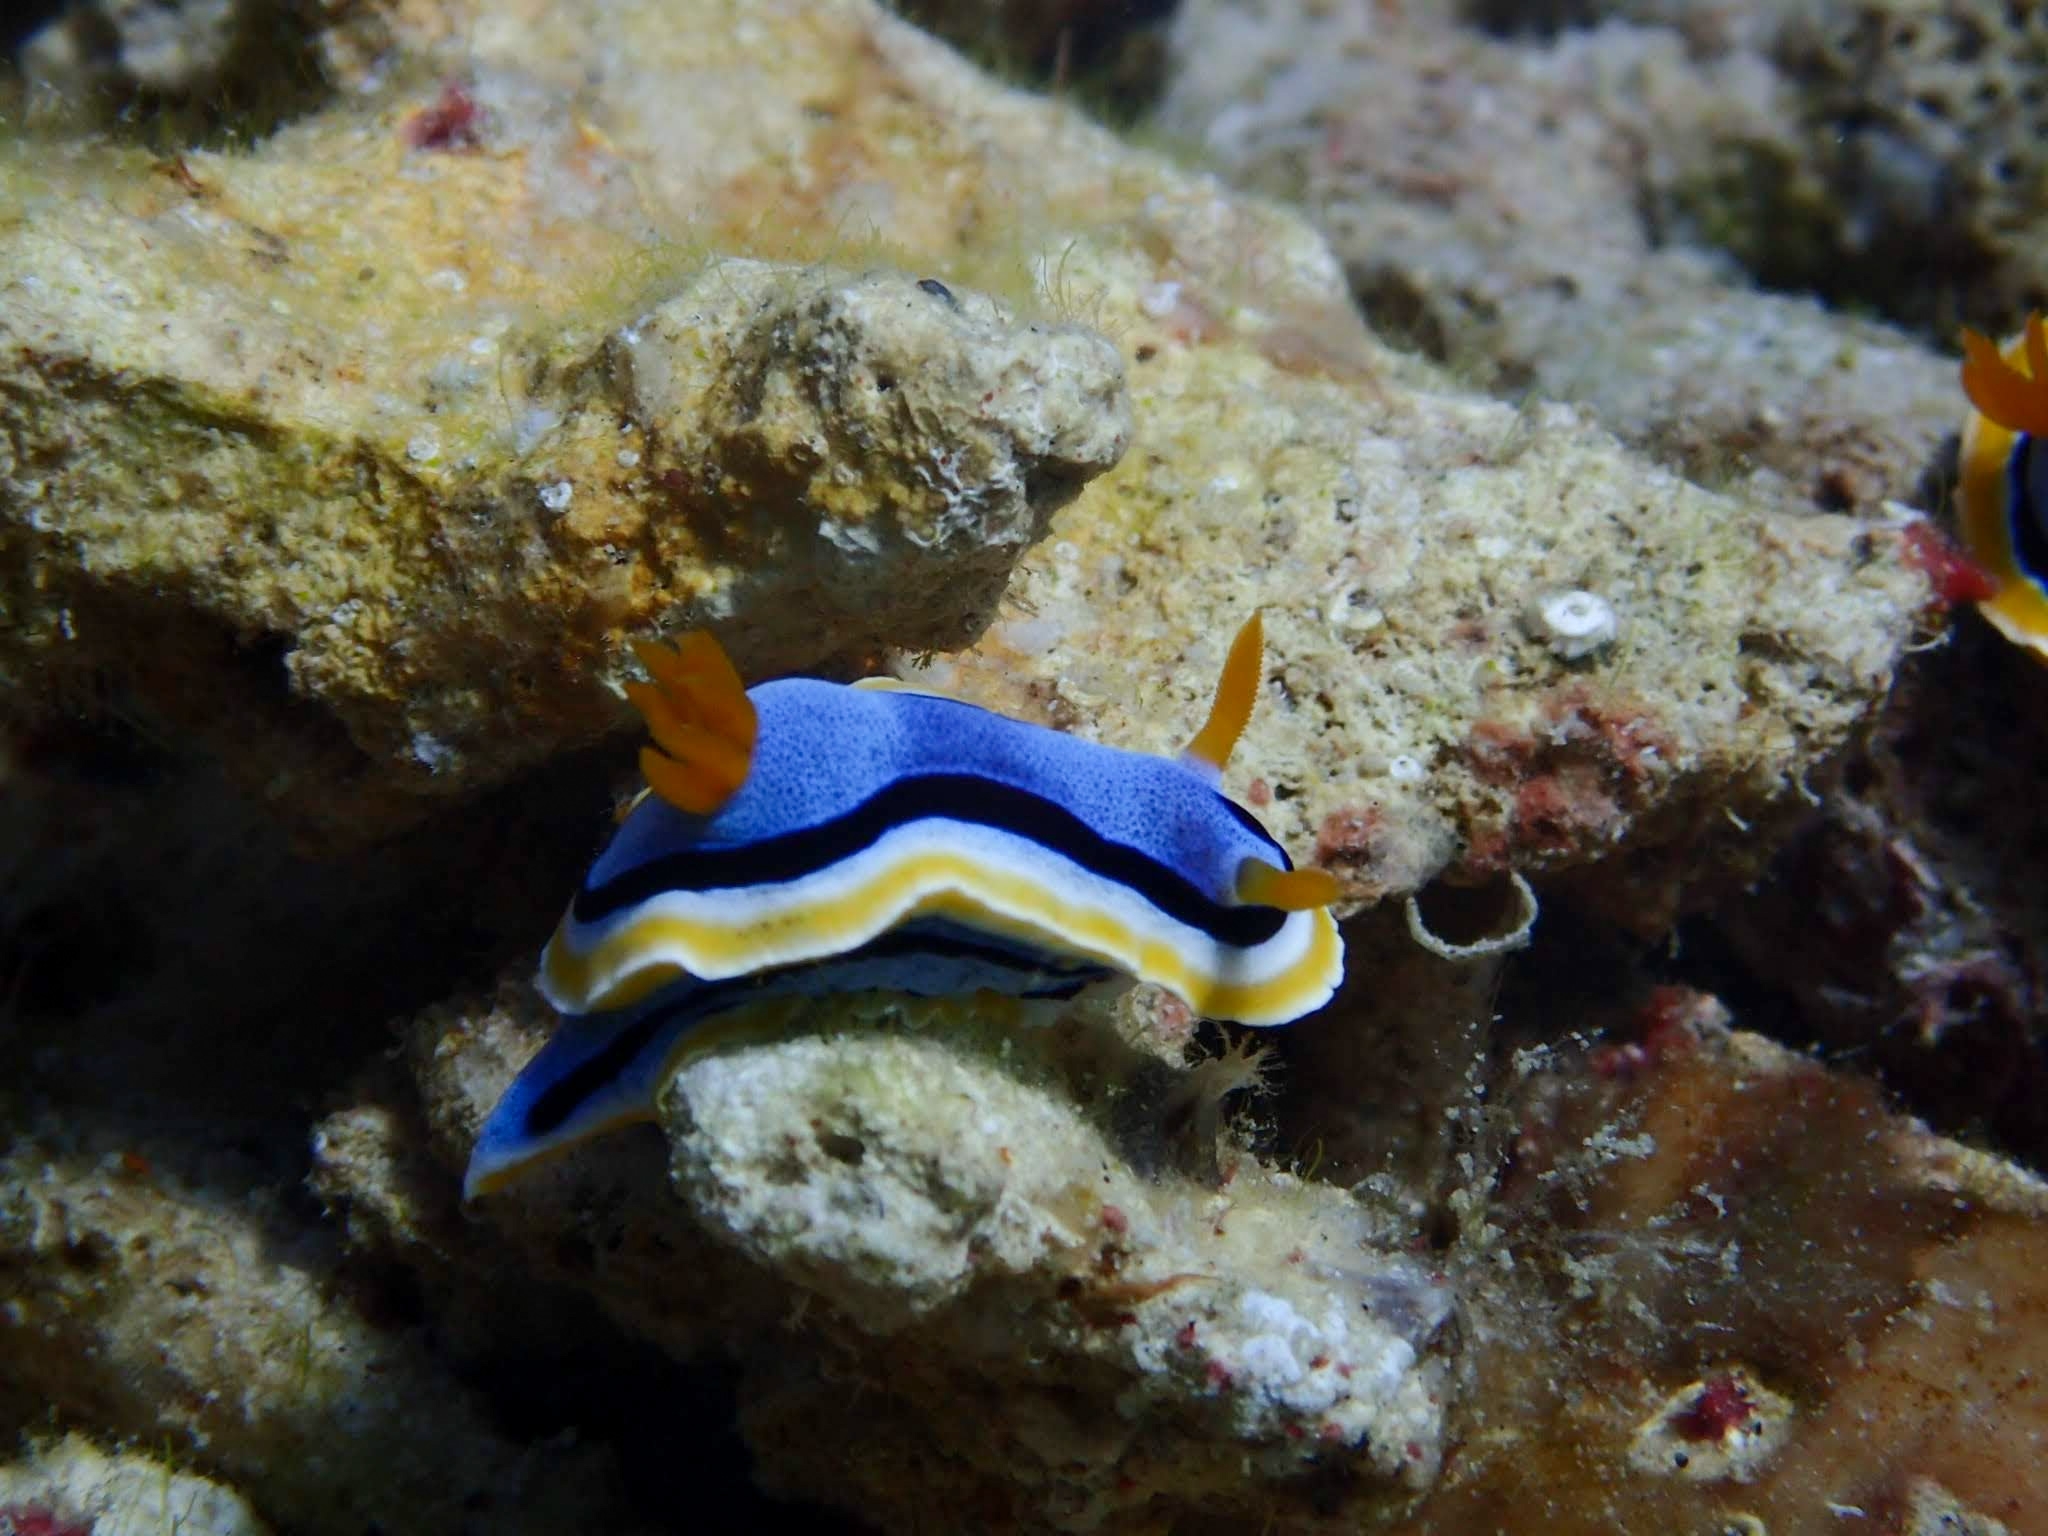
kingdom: Animalia
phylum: Mollusca
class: Gastropoda
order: Nudibranchia
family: Chromodorididae
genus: Chromodoris
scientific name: Chromodoris annae
